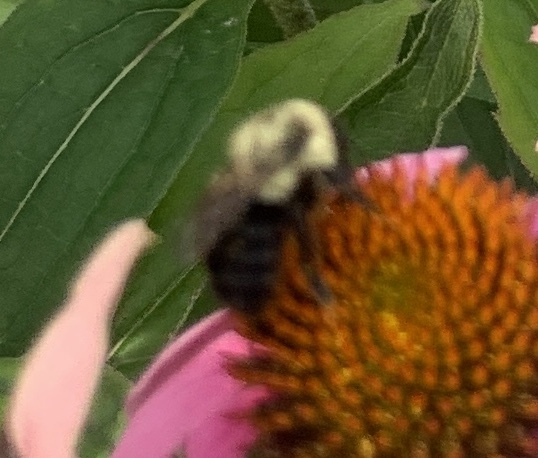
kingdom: Animalia
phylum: Arthropoda
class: Insecta
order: Hymenoptera
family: Apidae
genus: Bombus
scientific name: Bombus impatiens
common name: Common eastern bumble bee
